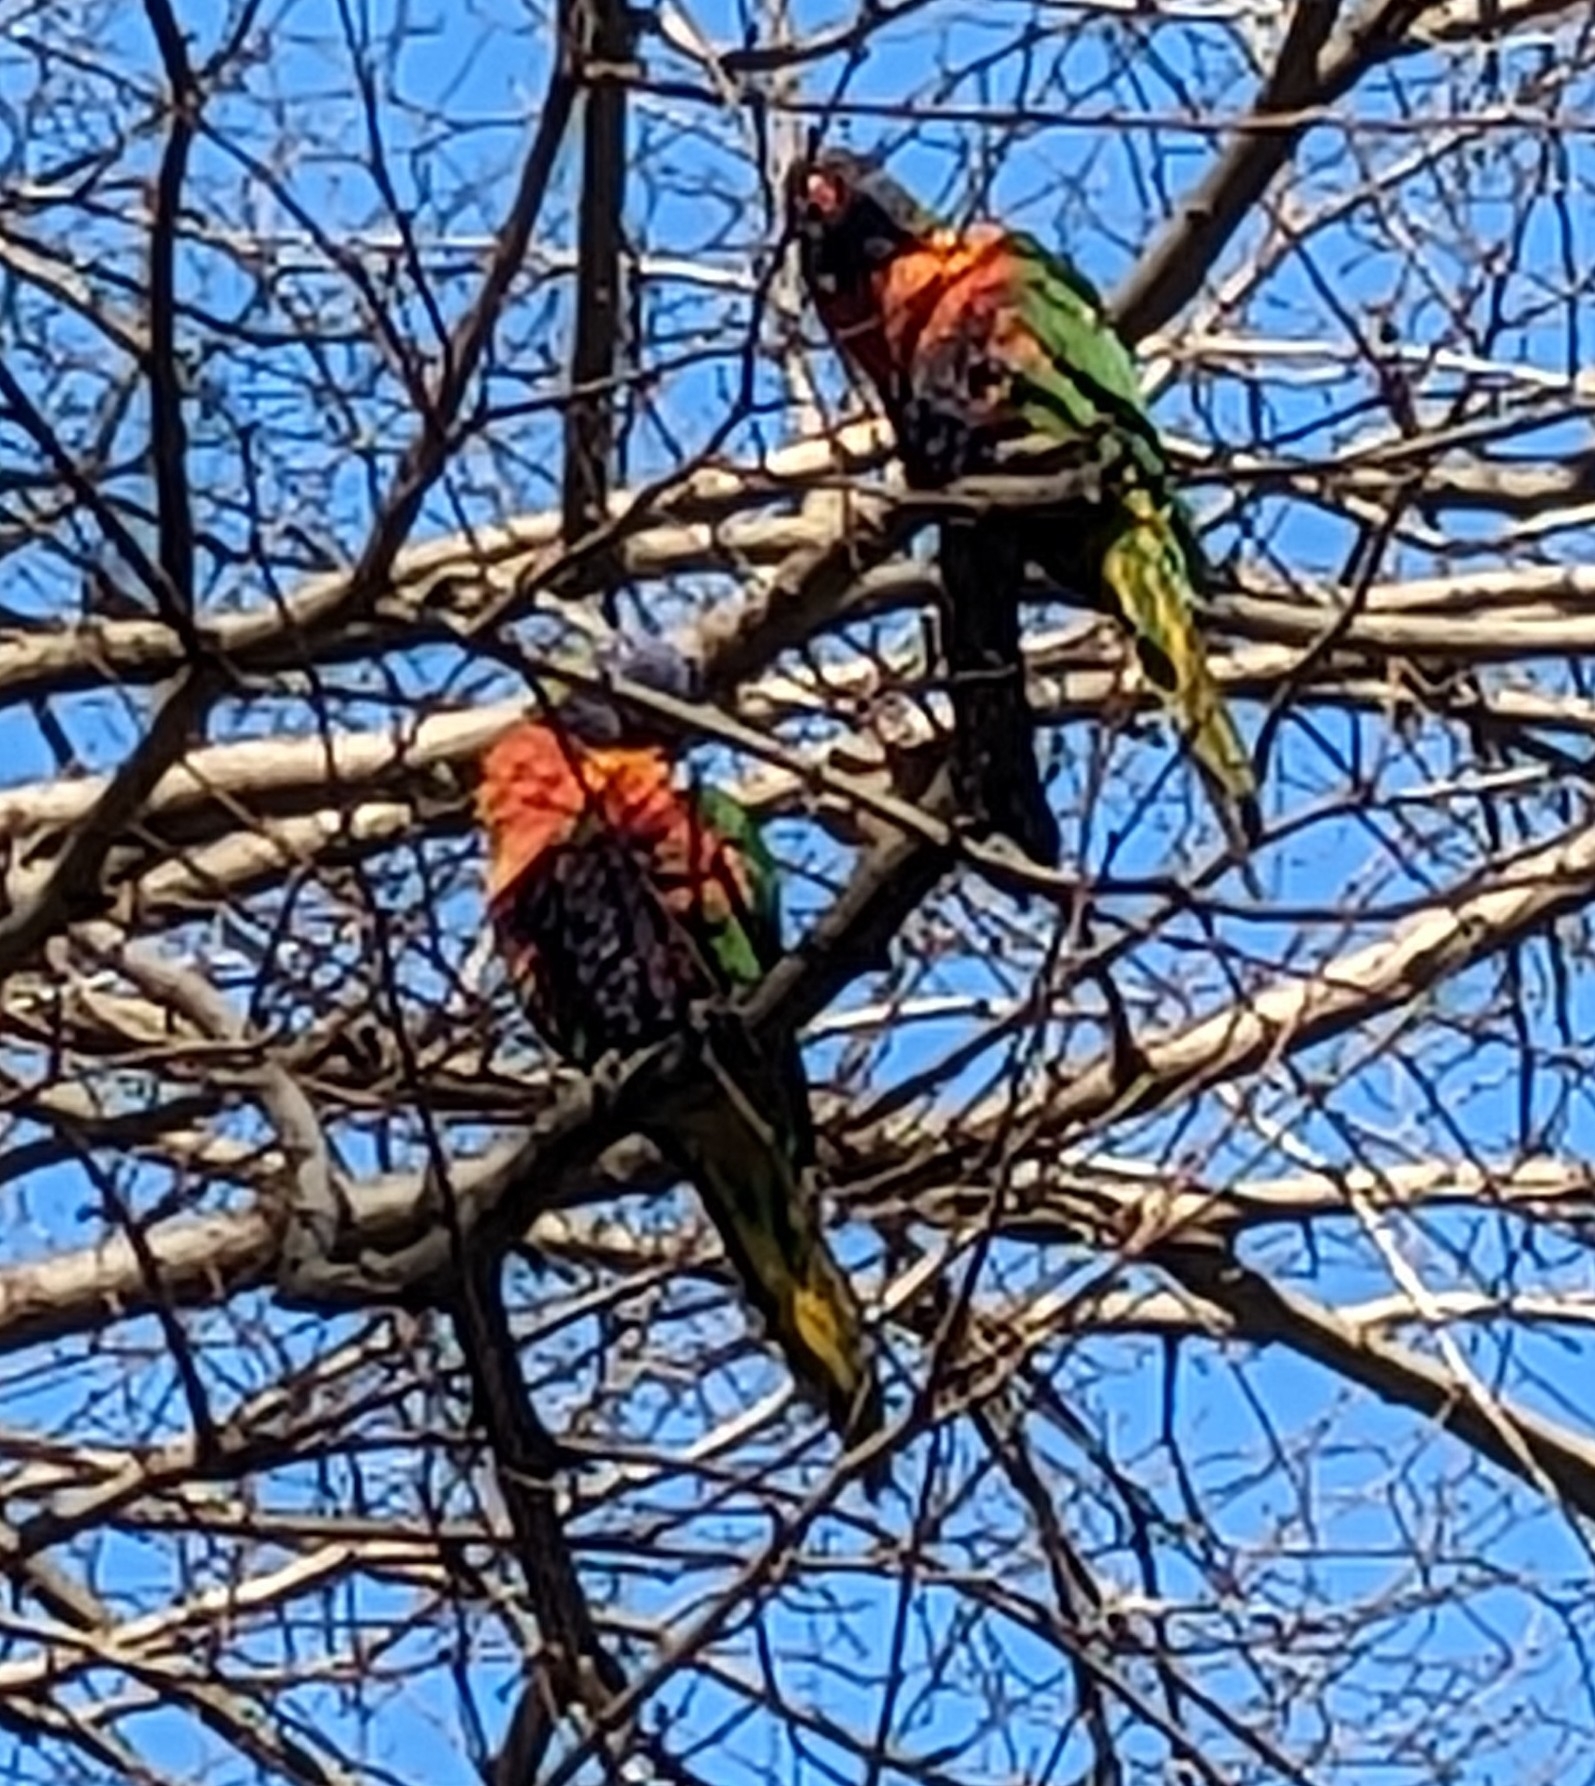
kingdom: Animalia
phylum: Chordata
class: Aves
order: Psittaciformes
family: Psittacidae
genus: Trichoglossus
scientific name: Trichoglossus haematodus
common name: Coconut lorikeet
